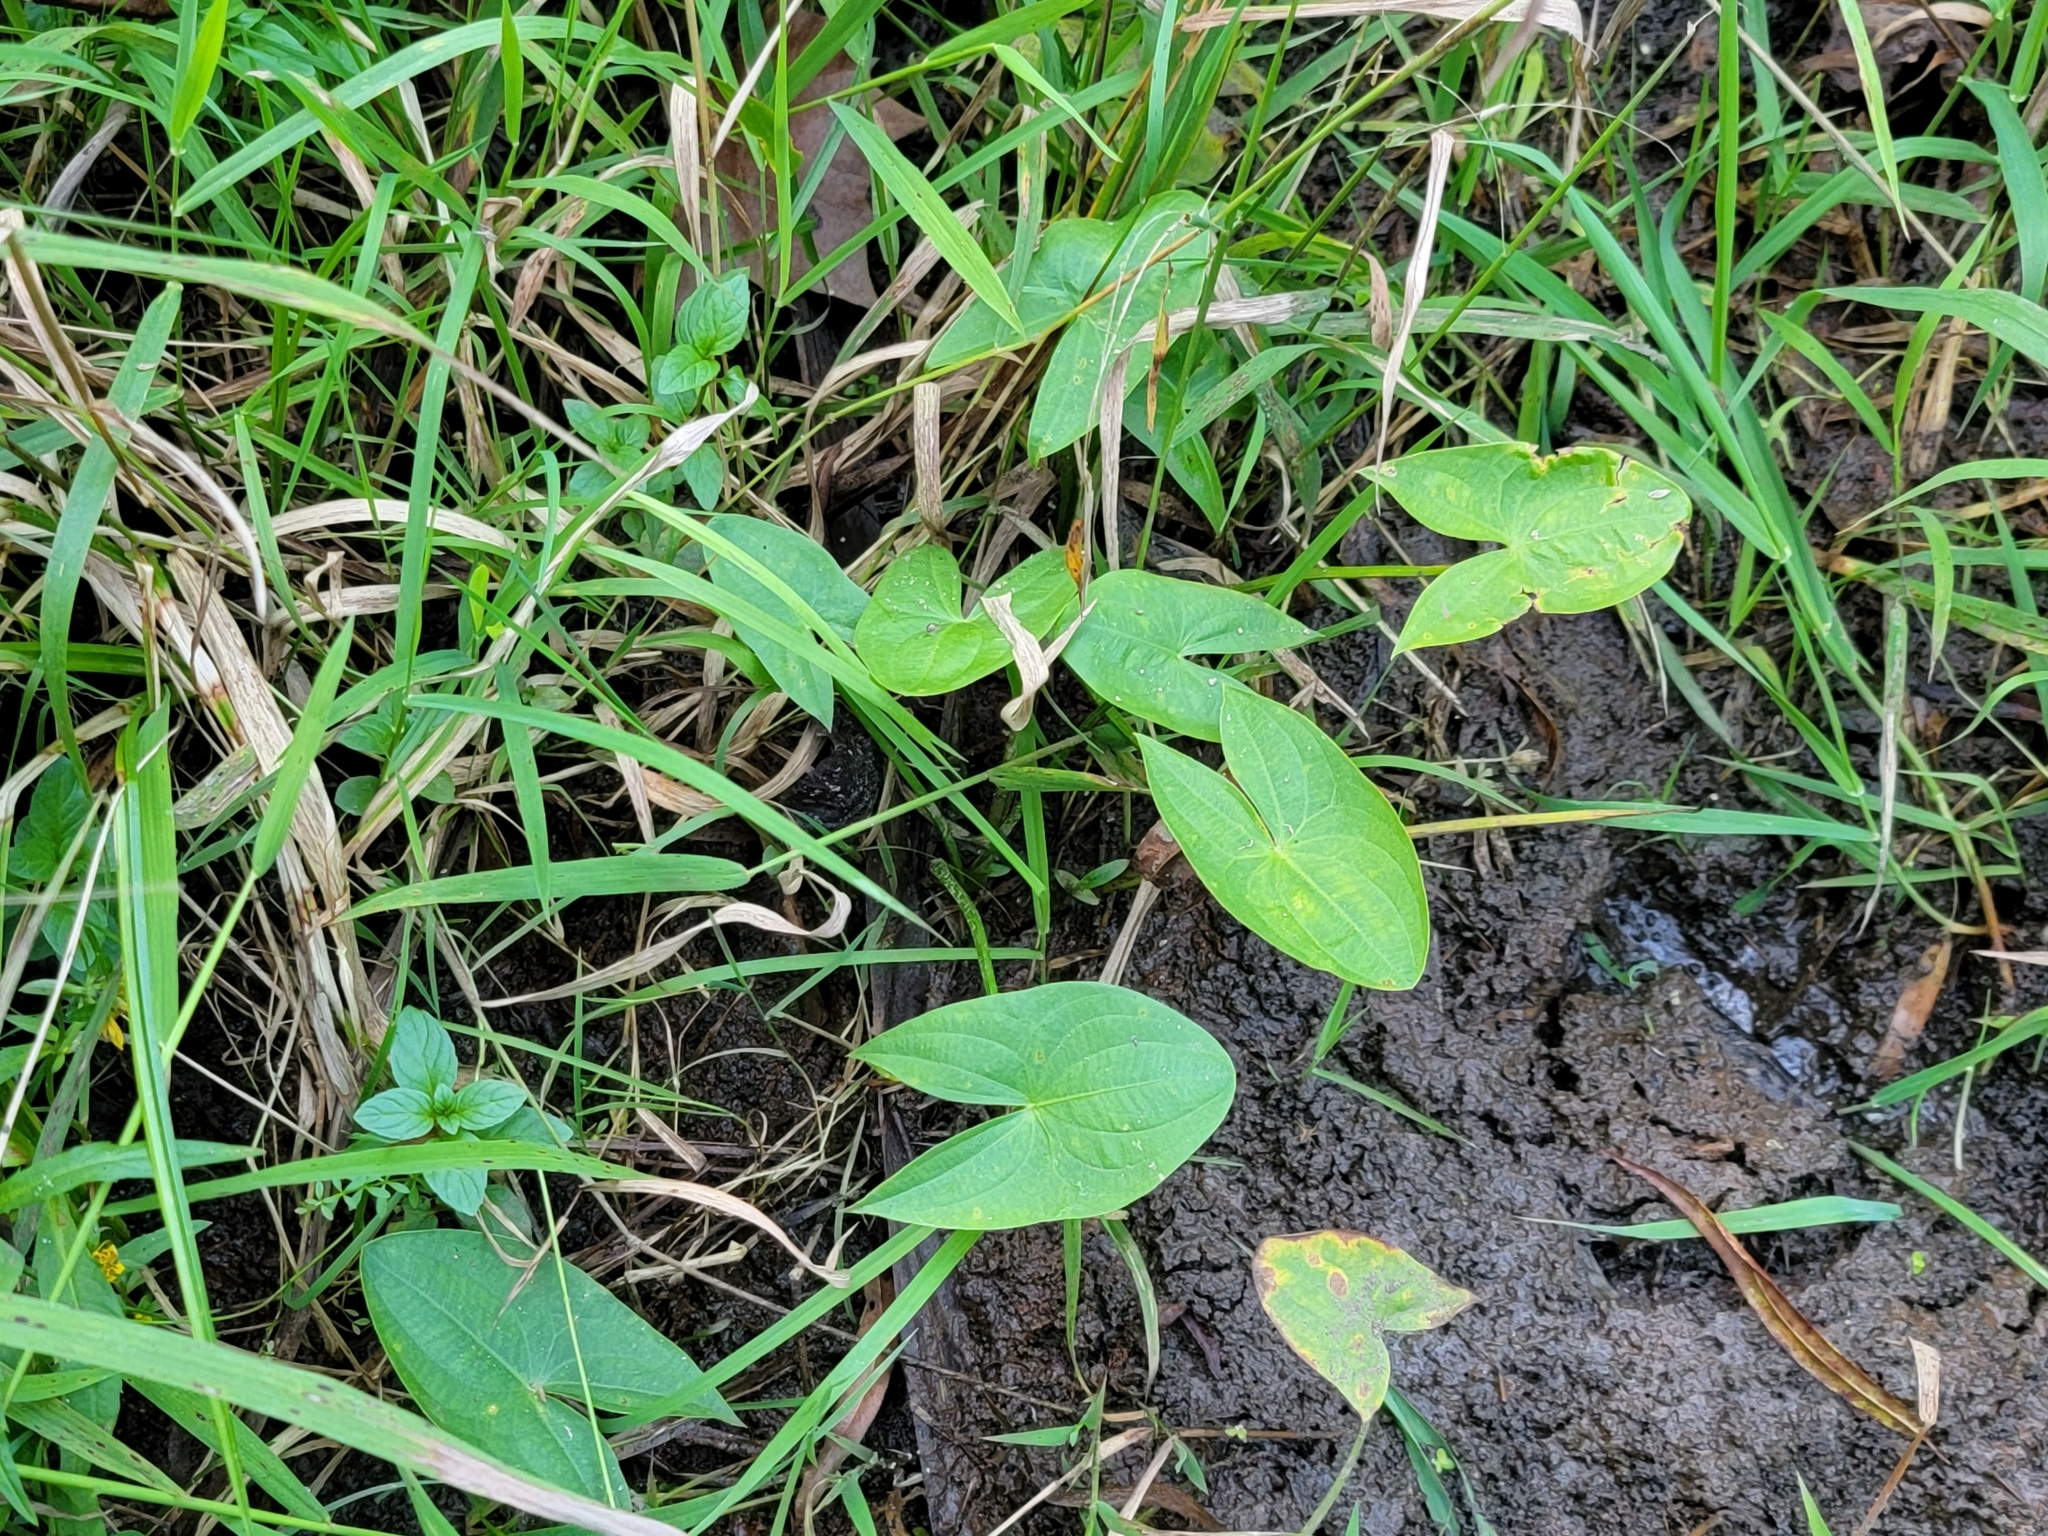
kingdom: Plantae
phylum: Tracheophyta
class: Liliopsida
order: Alismatales
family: Alismataceae
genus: Sagittaria
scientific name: Sagittaria latifolia
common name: Duck-potato
